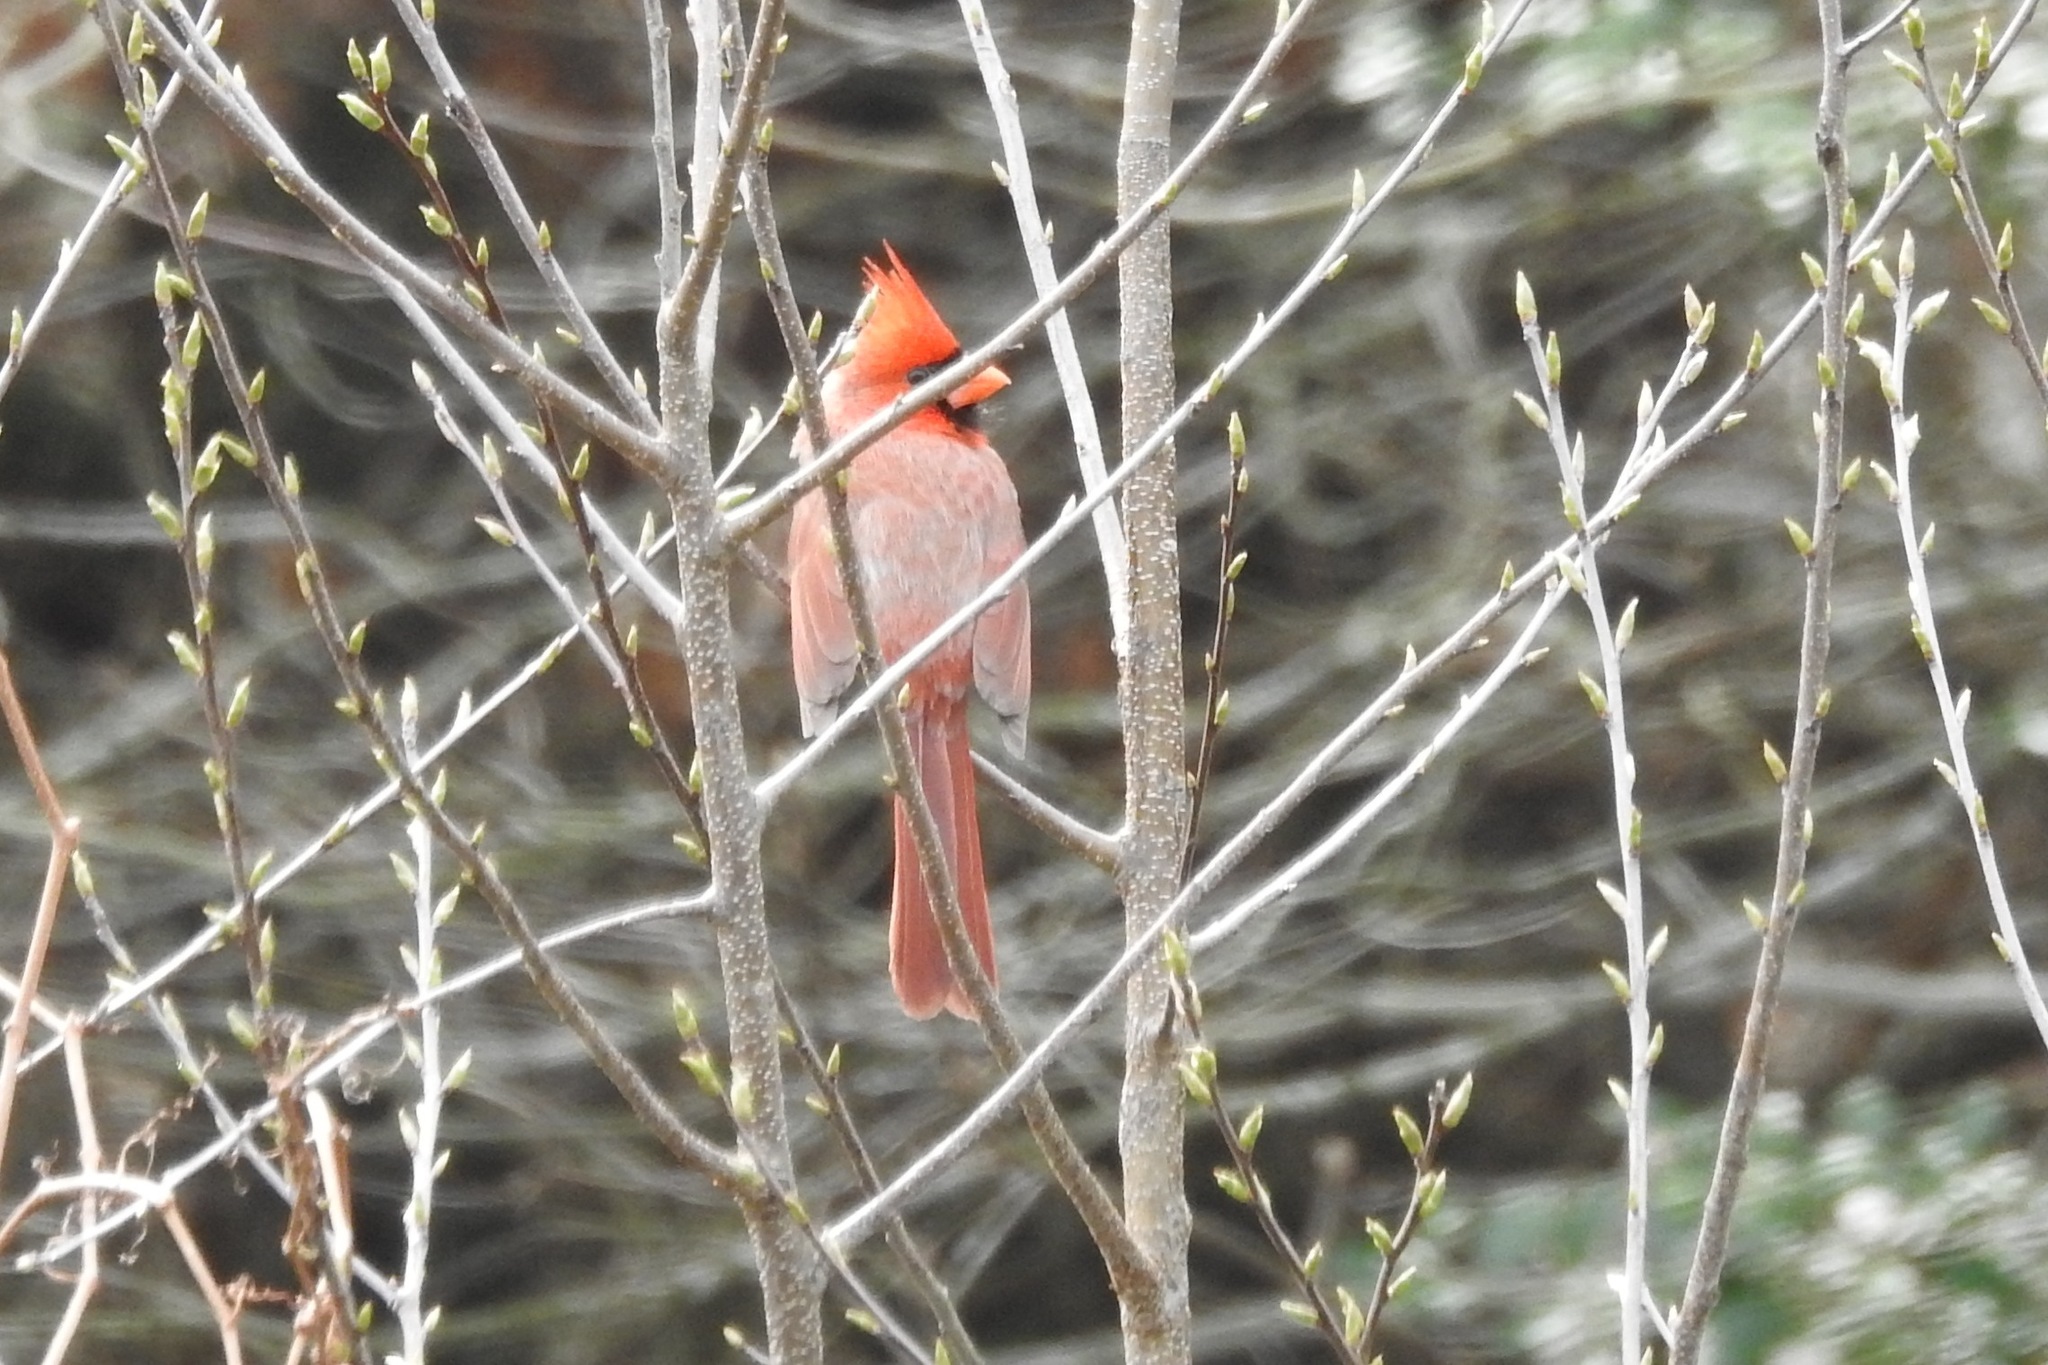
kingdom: Animalia
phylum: Chordata
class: Aves
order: Passeriformes
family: Cardinalidae
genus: Cardinalis
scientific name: Cardinalis cardinalis
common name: Northern cardinal
